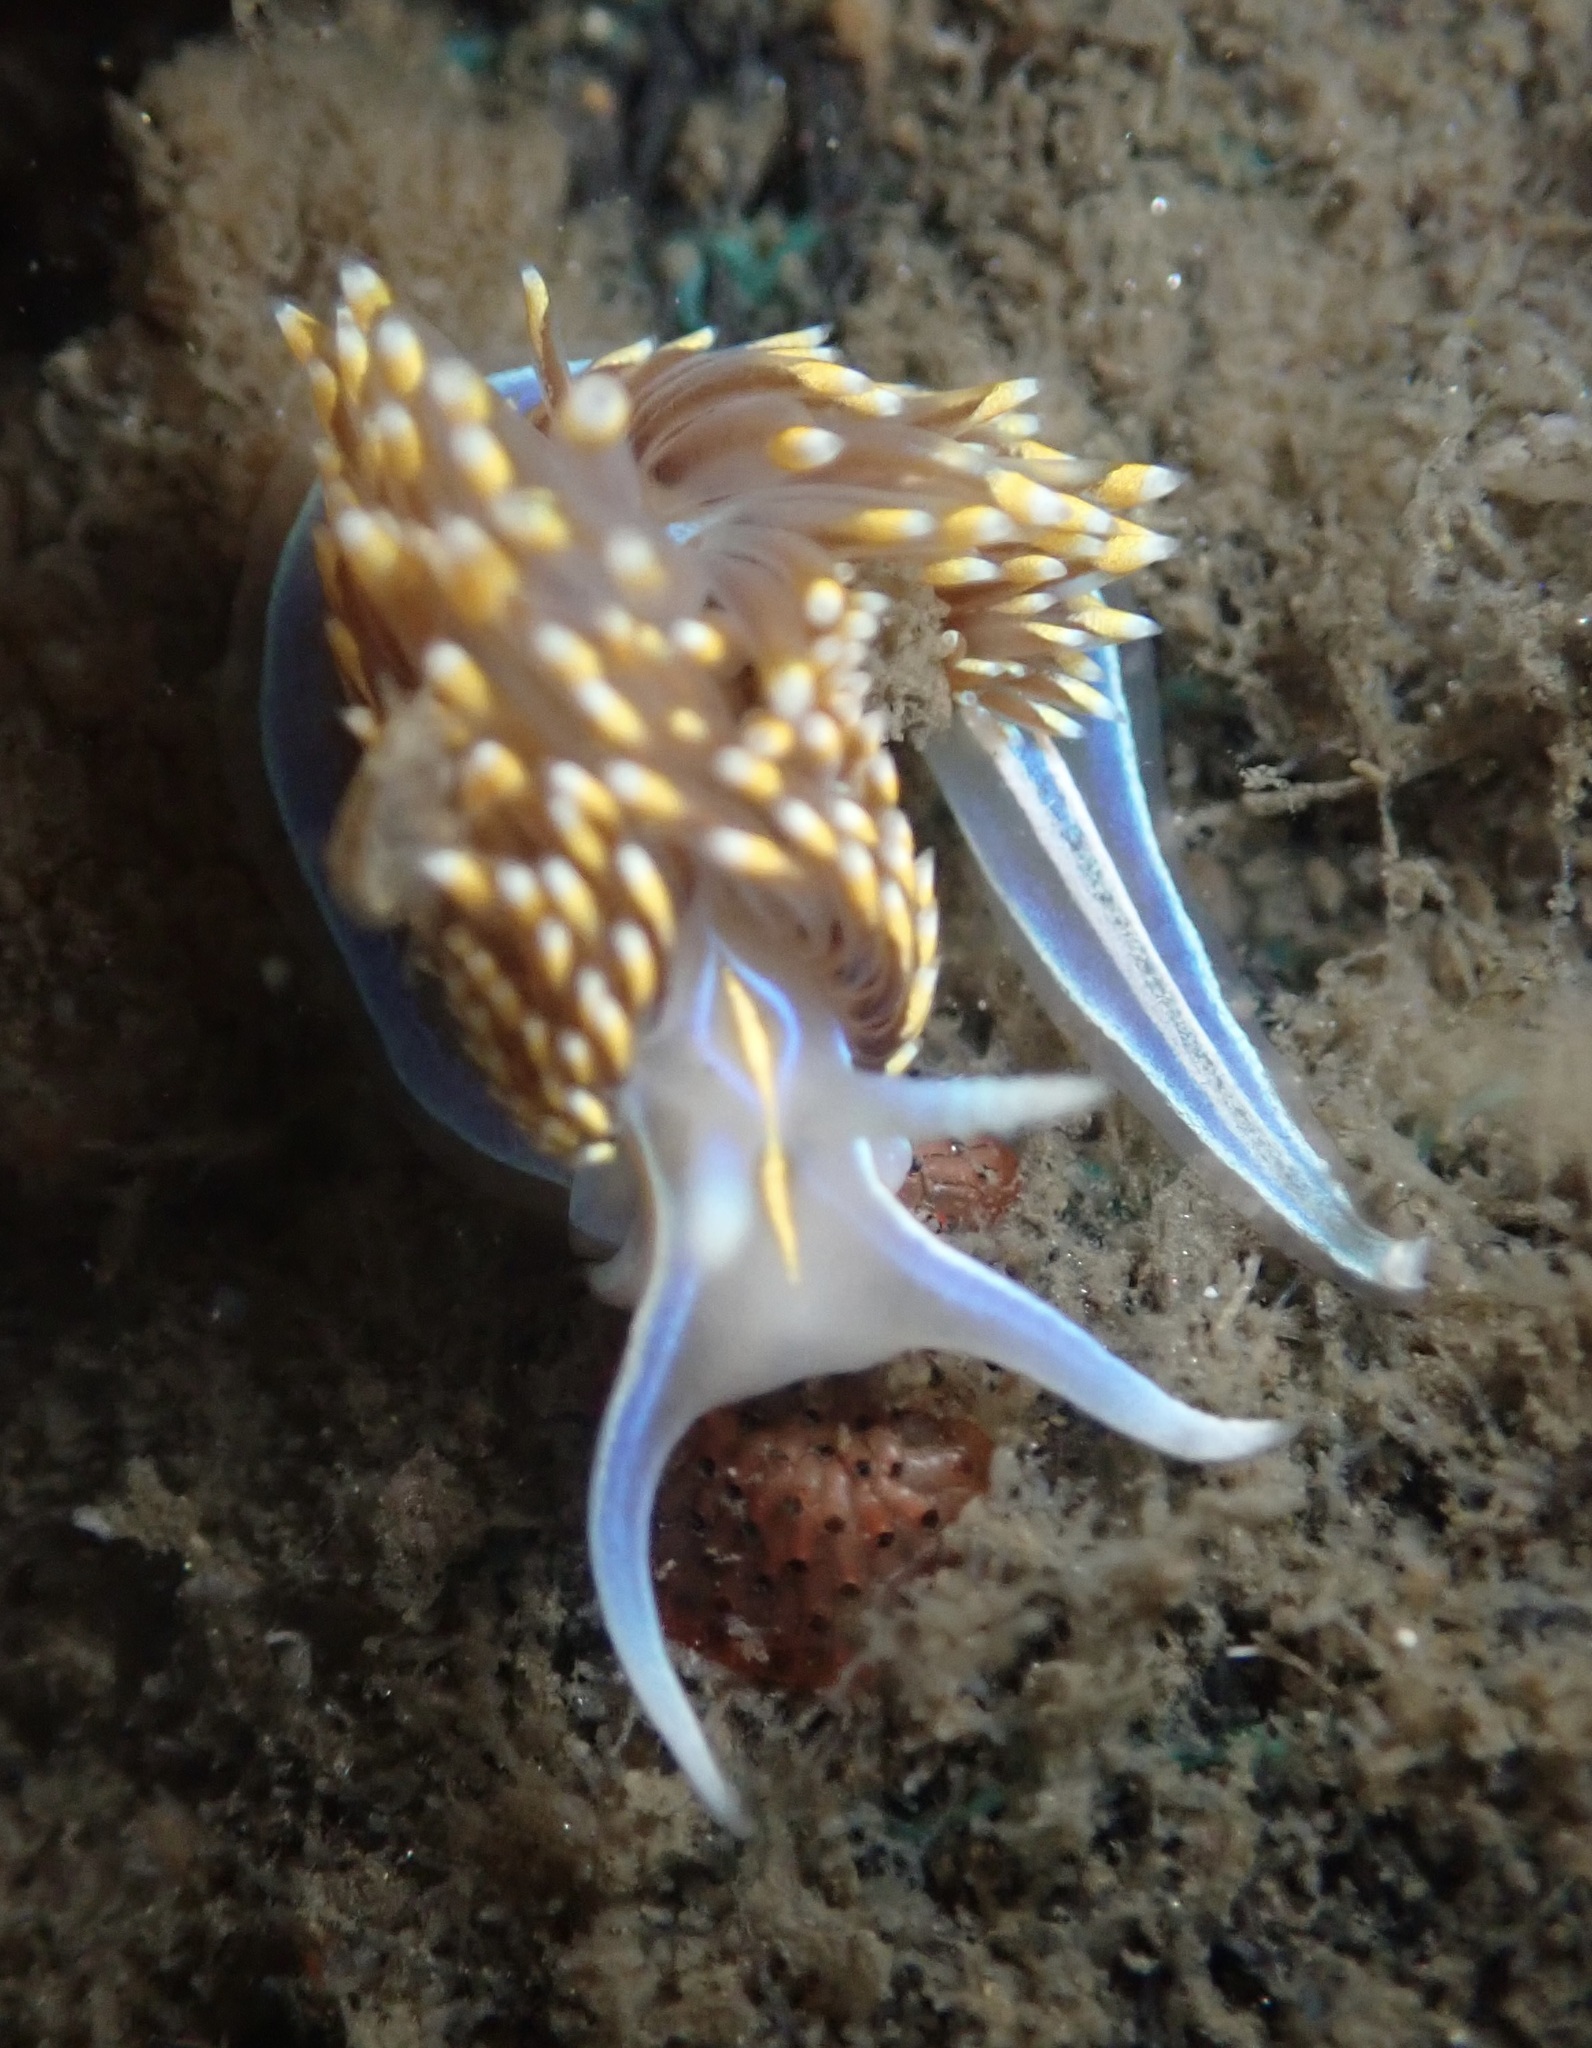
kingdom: Animalia
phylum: Mollusca
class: Gastropoda
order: Nudibranchia
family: Myrrhinidae
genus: Hermissenda
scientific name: Hermissenda opalescens
